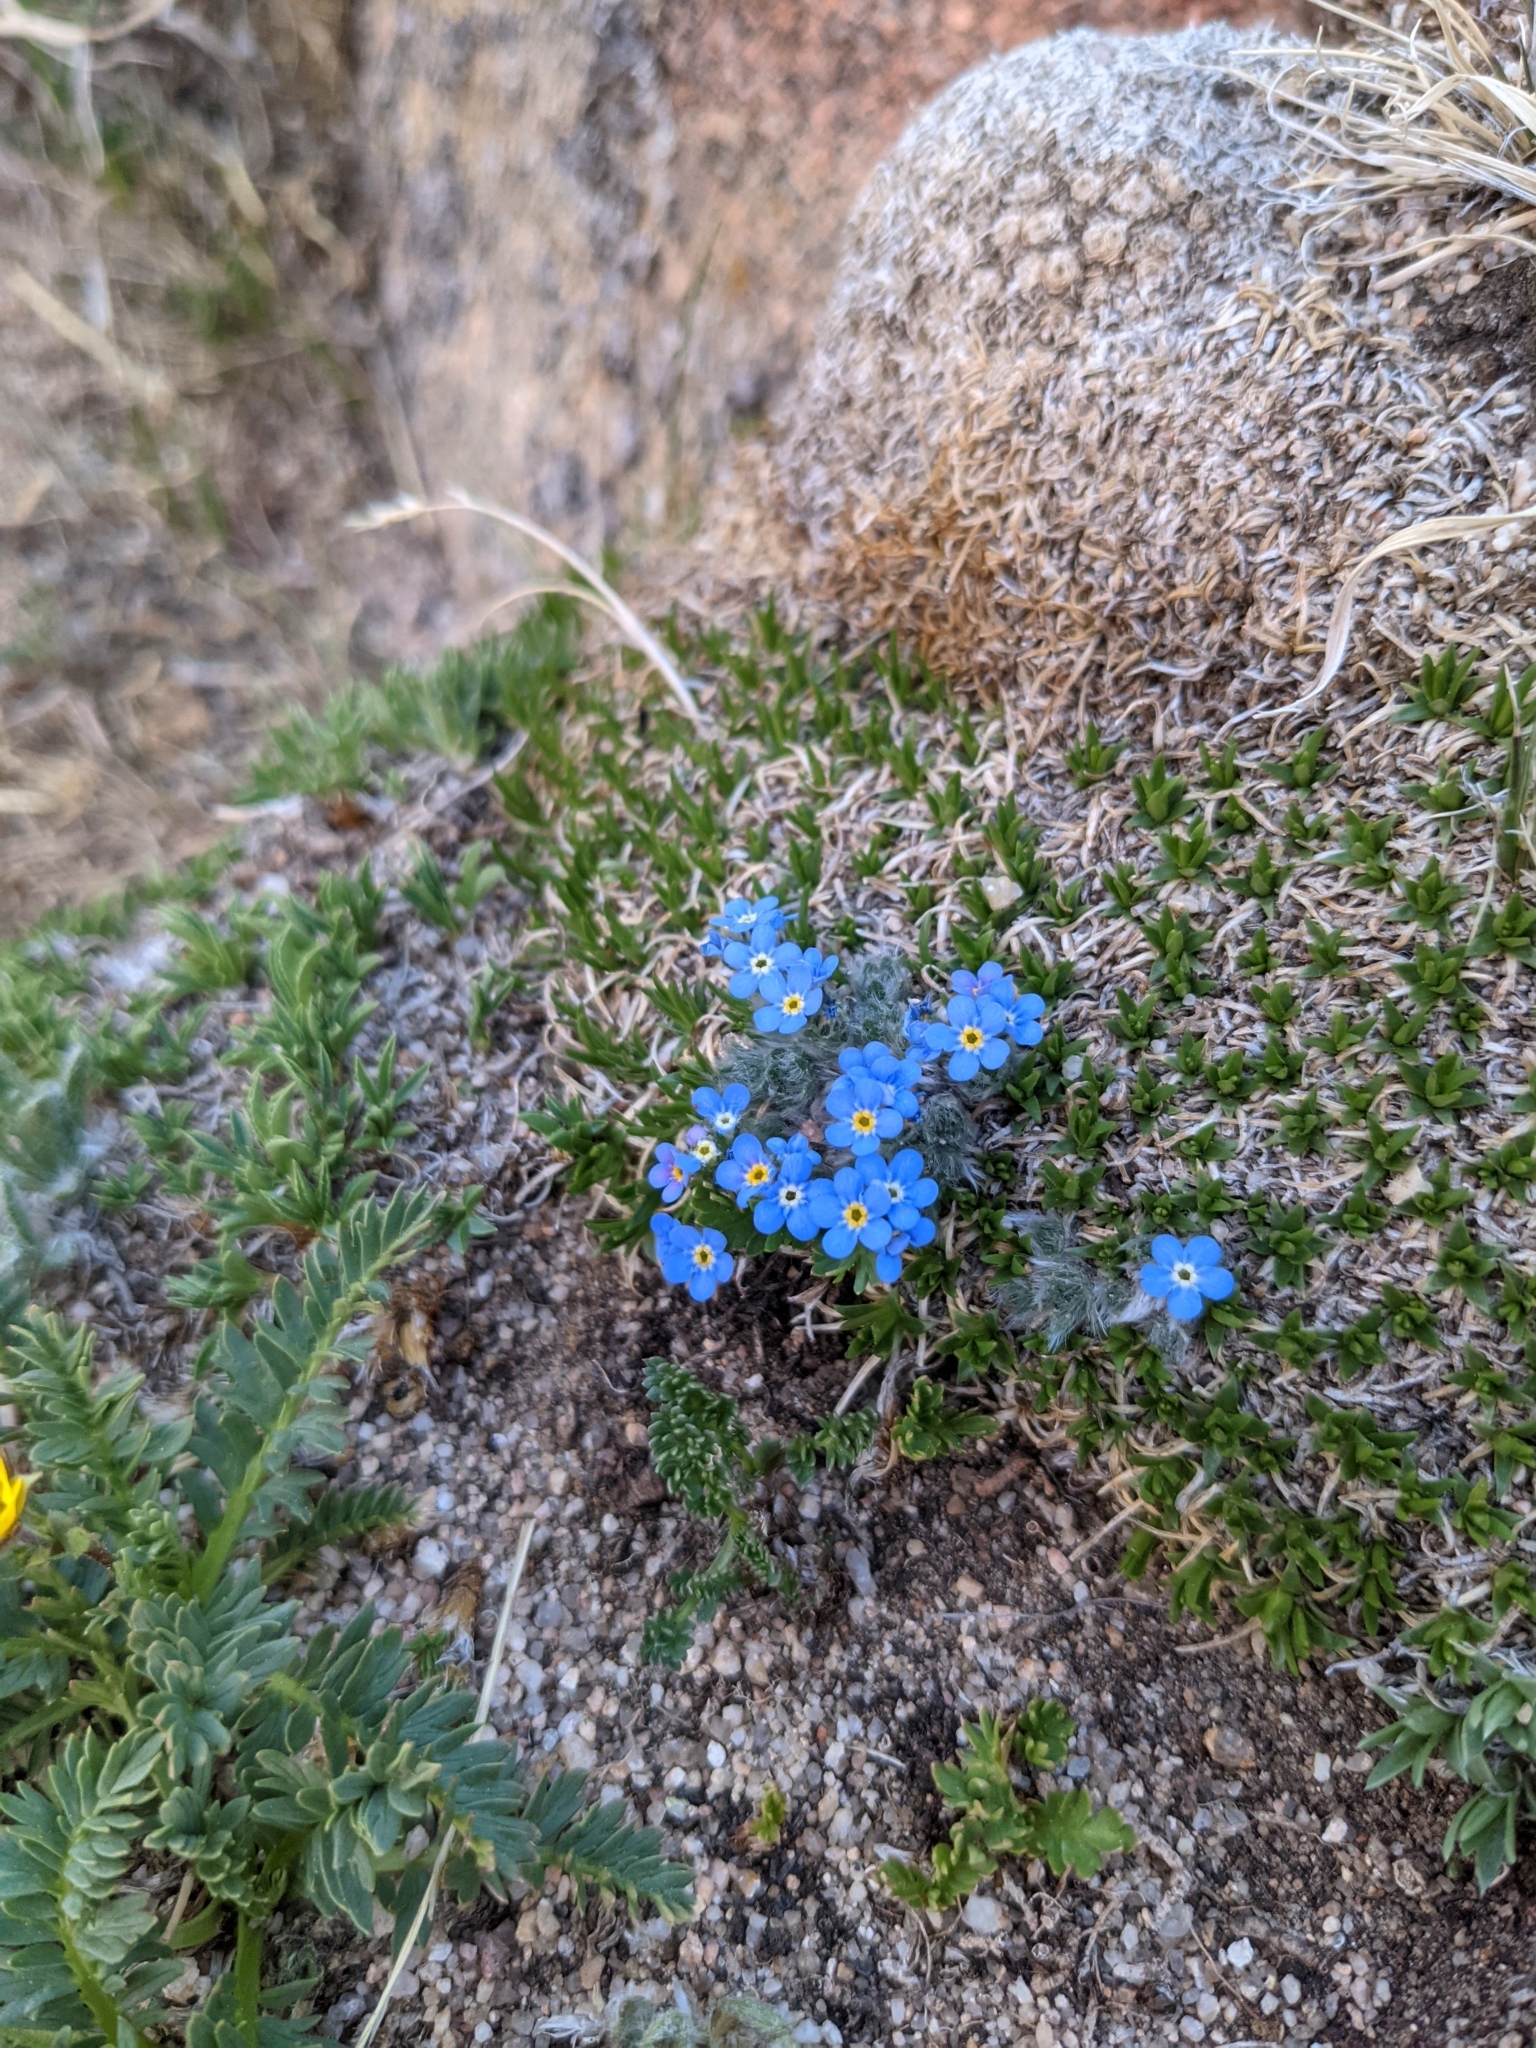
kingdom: Plantae
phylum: Tracheophyta
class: Magnoliopsida
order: Boraginales
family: Boraginaceae
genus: Eritrichium
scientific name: Eritrichium argenteum
